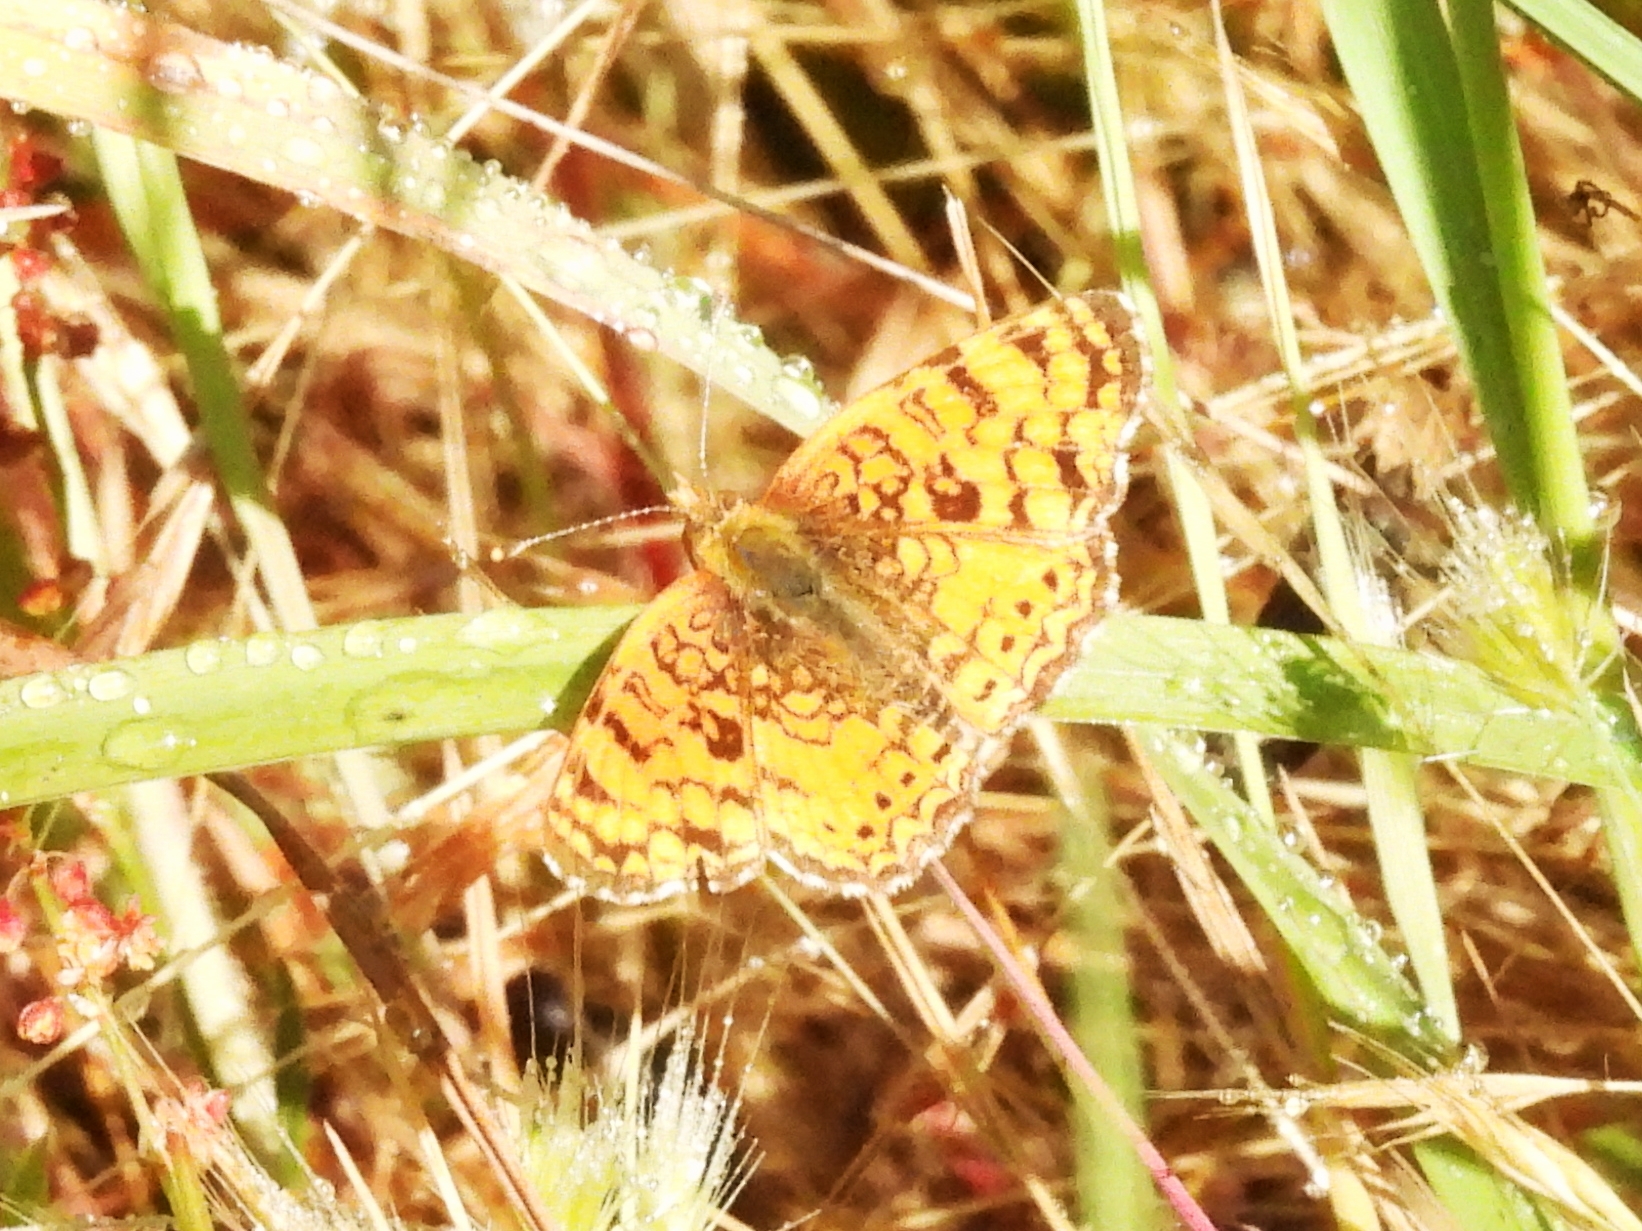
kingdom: Animalia
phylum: Arthropoda
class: Insecta
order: Lepidoptera
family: Nymphalidae
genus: Eresia
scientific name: Eresia aveyrona
